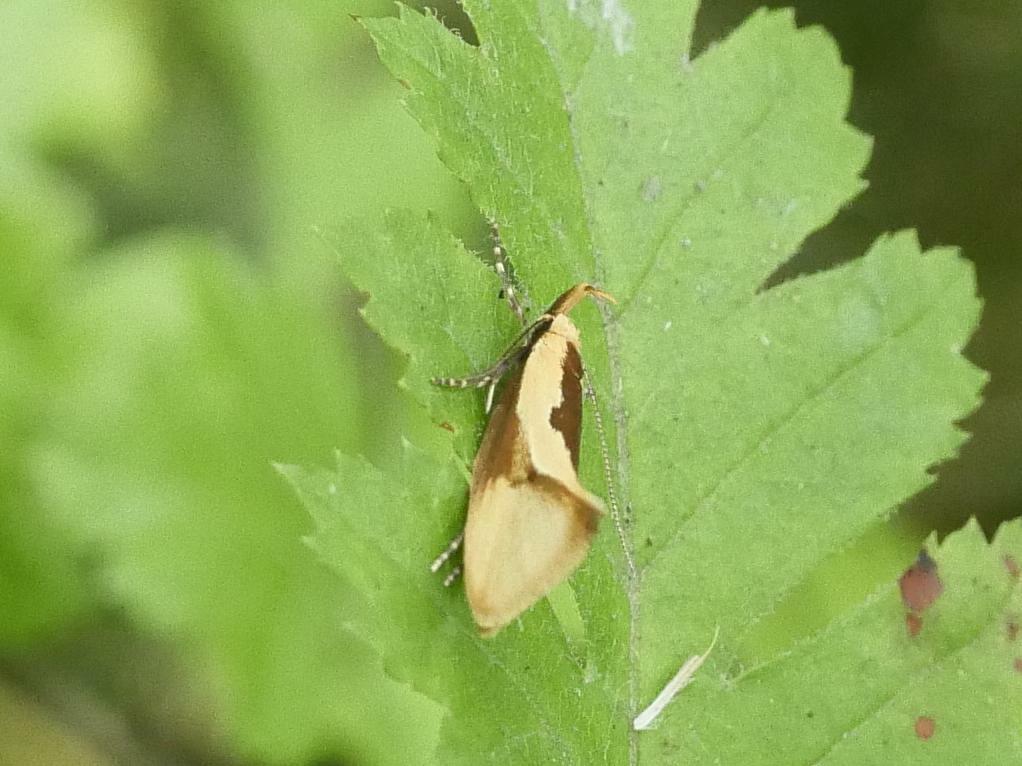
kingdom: Animalia
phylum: Arthropoda
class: Insecta
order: Lepidoptera
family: Oecophoridae
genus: Harpella
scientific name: Harpella forficella
